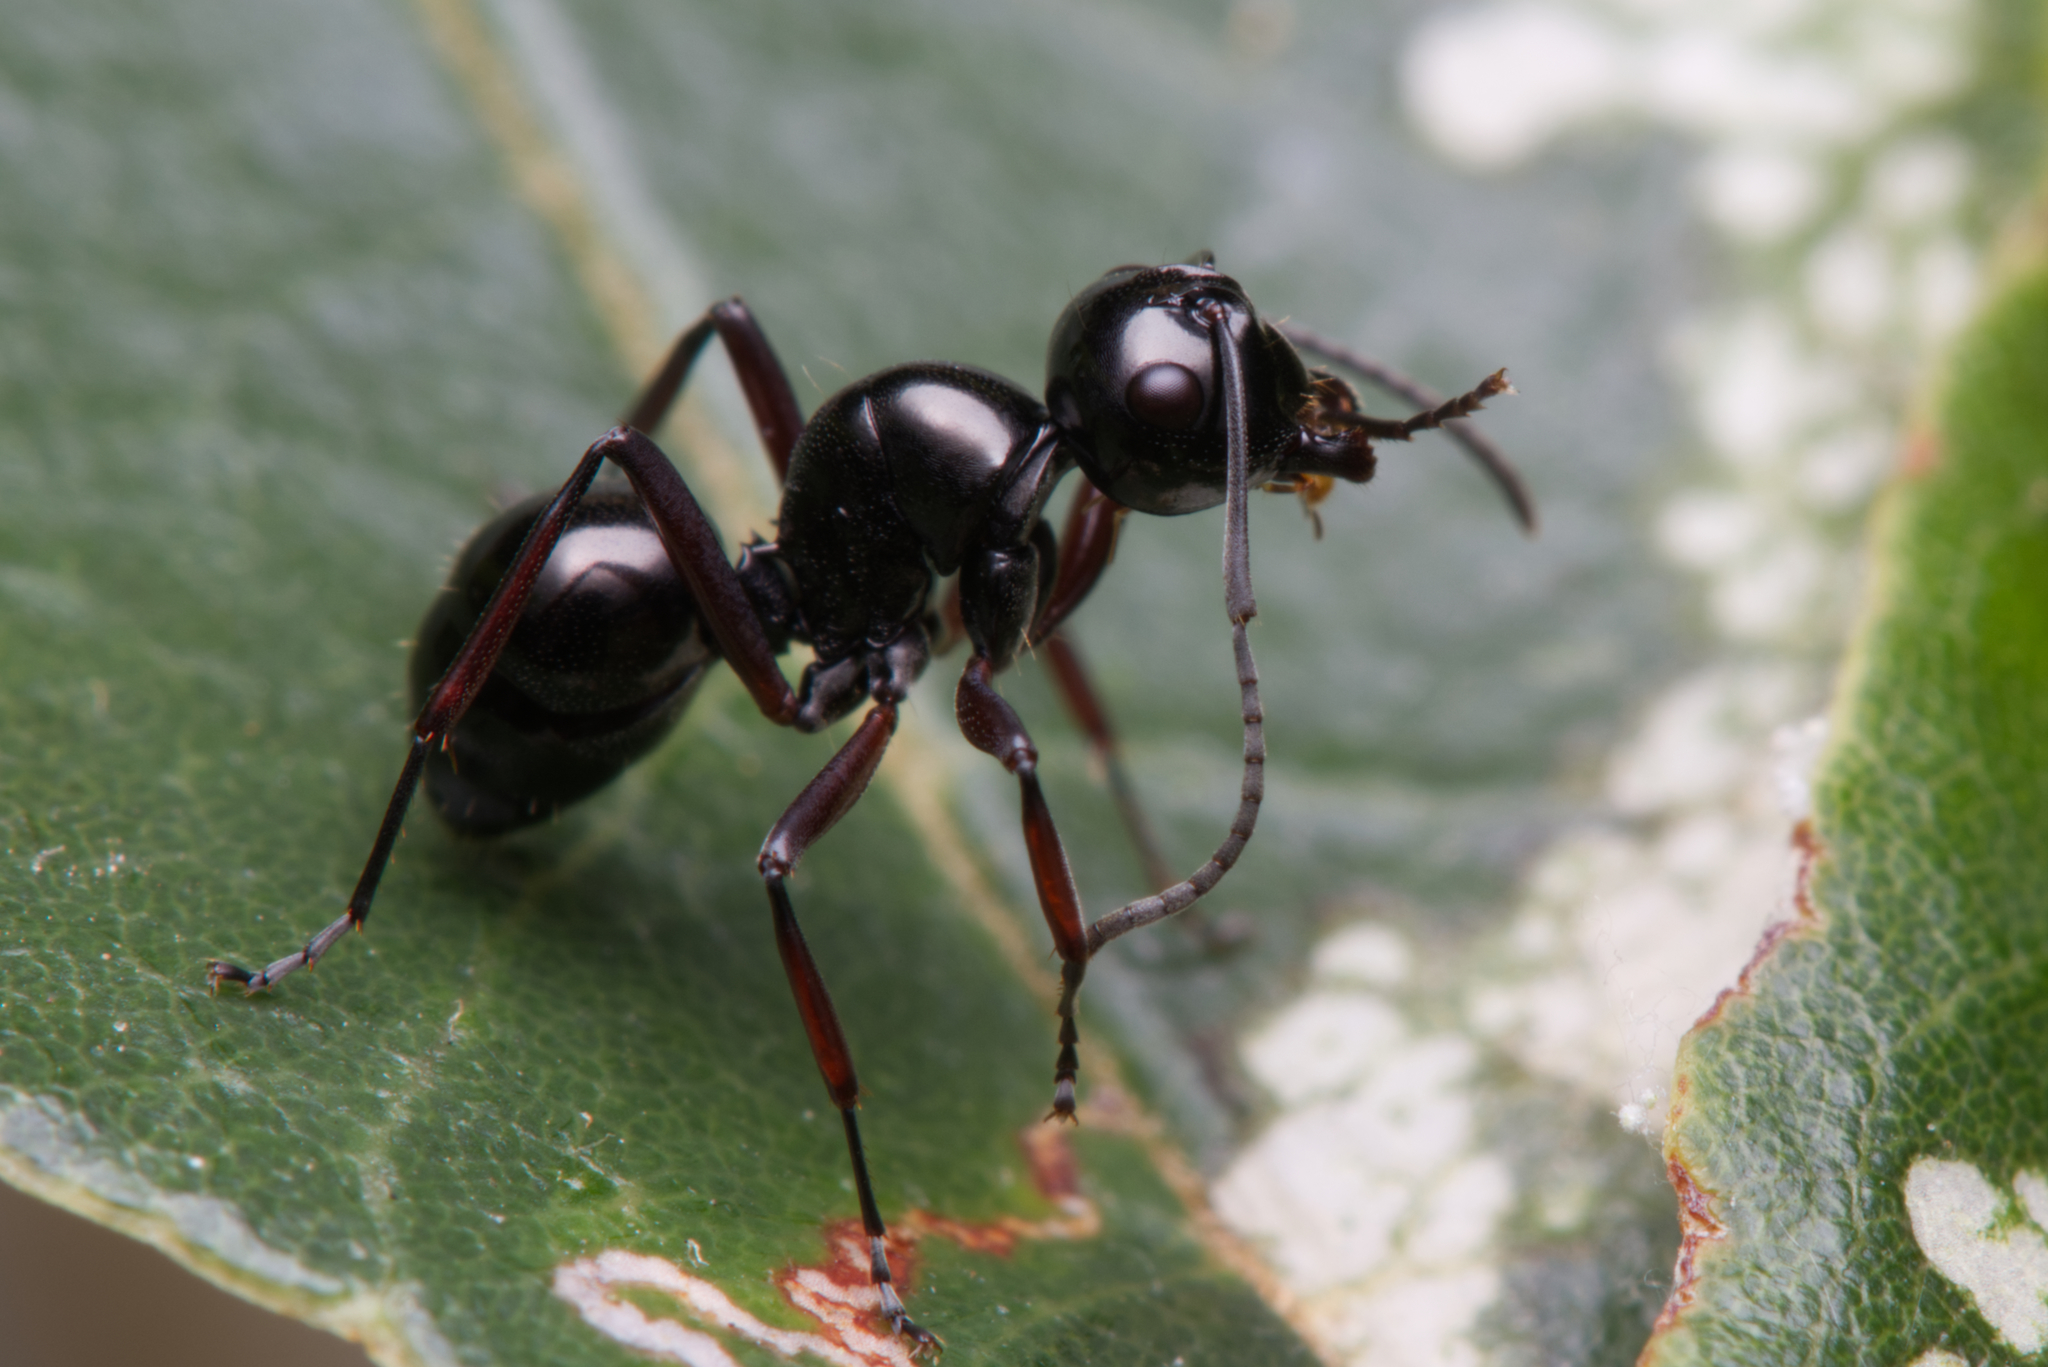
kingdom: Animalia
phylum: Arthropoda
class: Insecta
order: Hymenoptera
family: Formicidae
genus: Polyrhachis
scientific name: Polyrhachis australis
